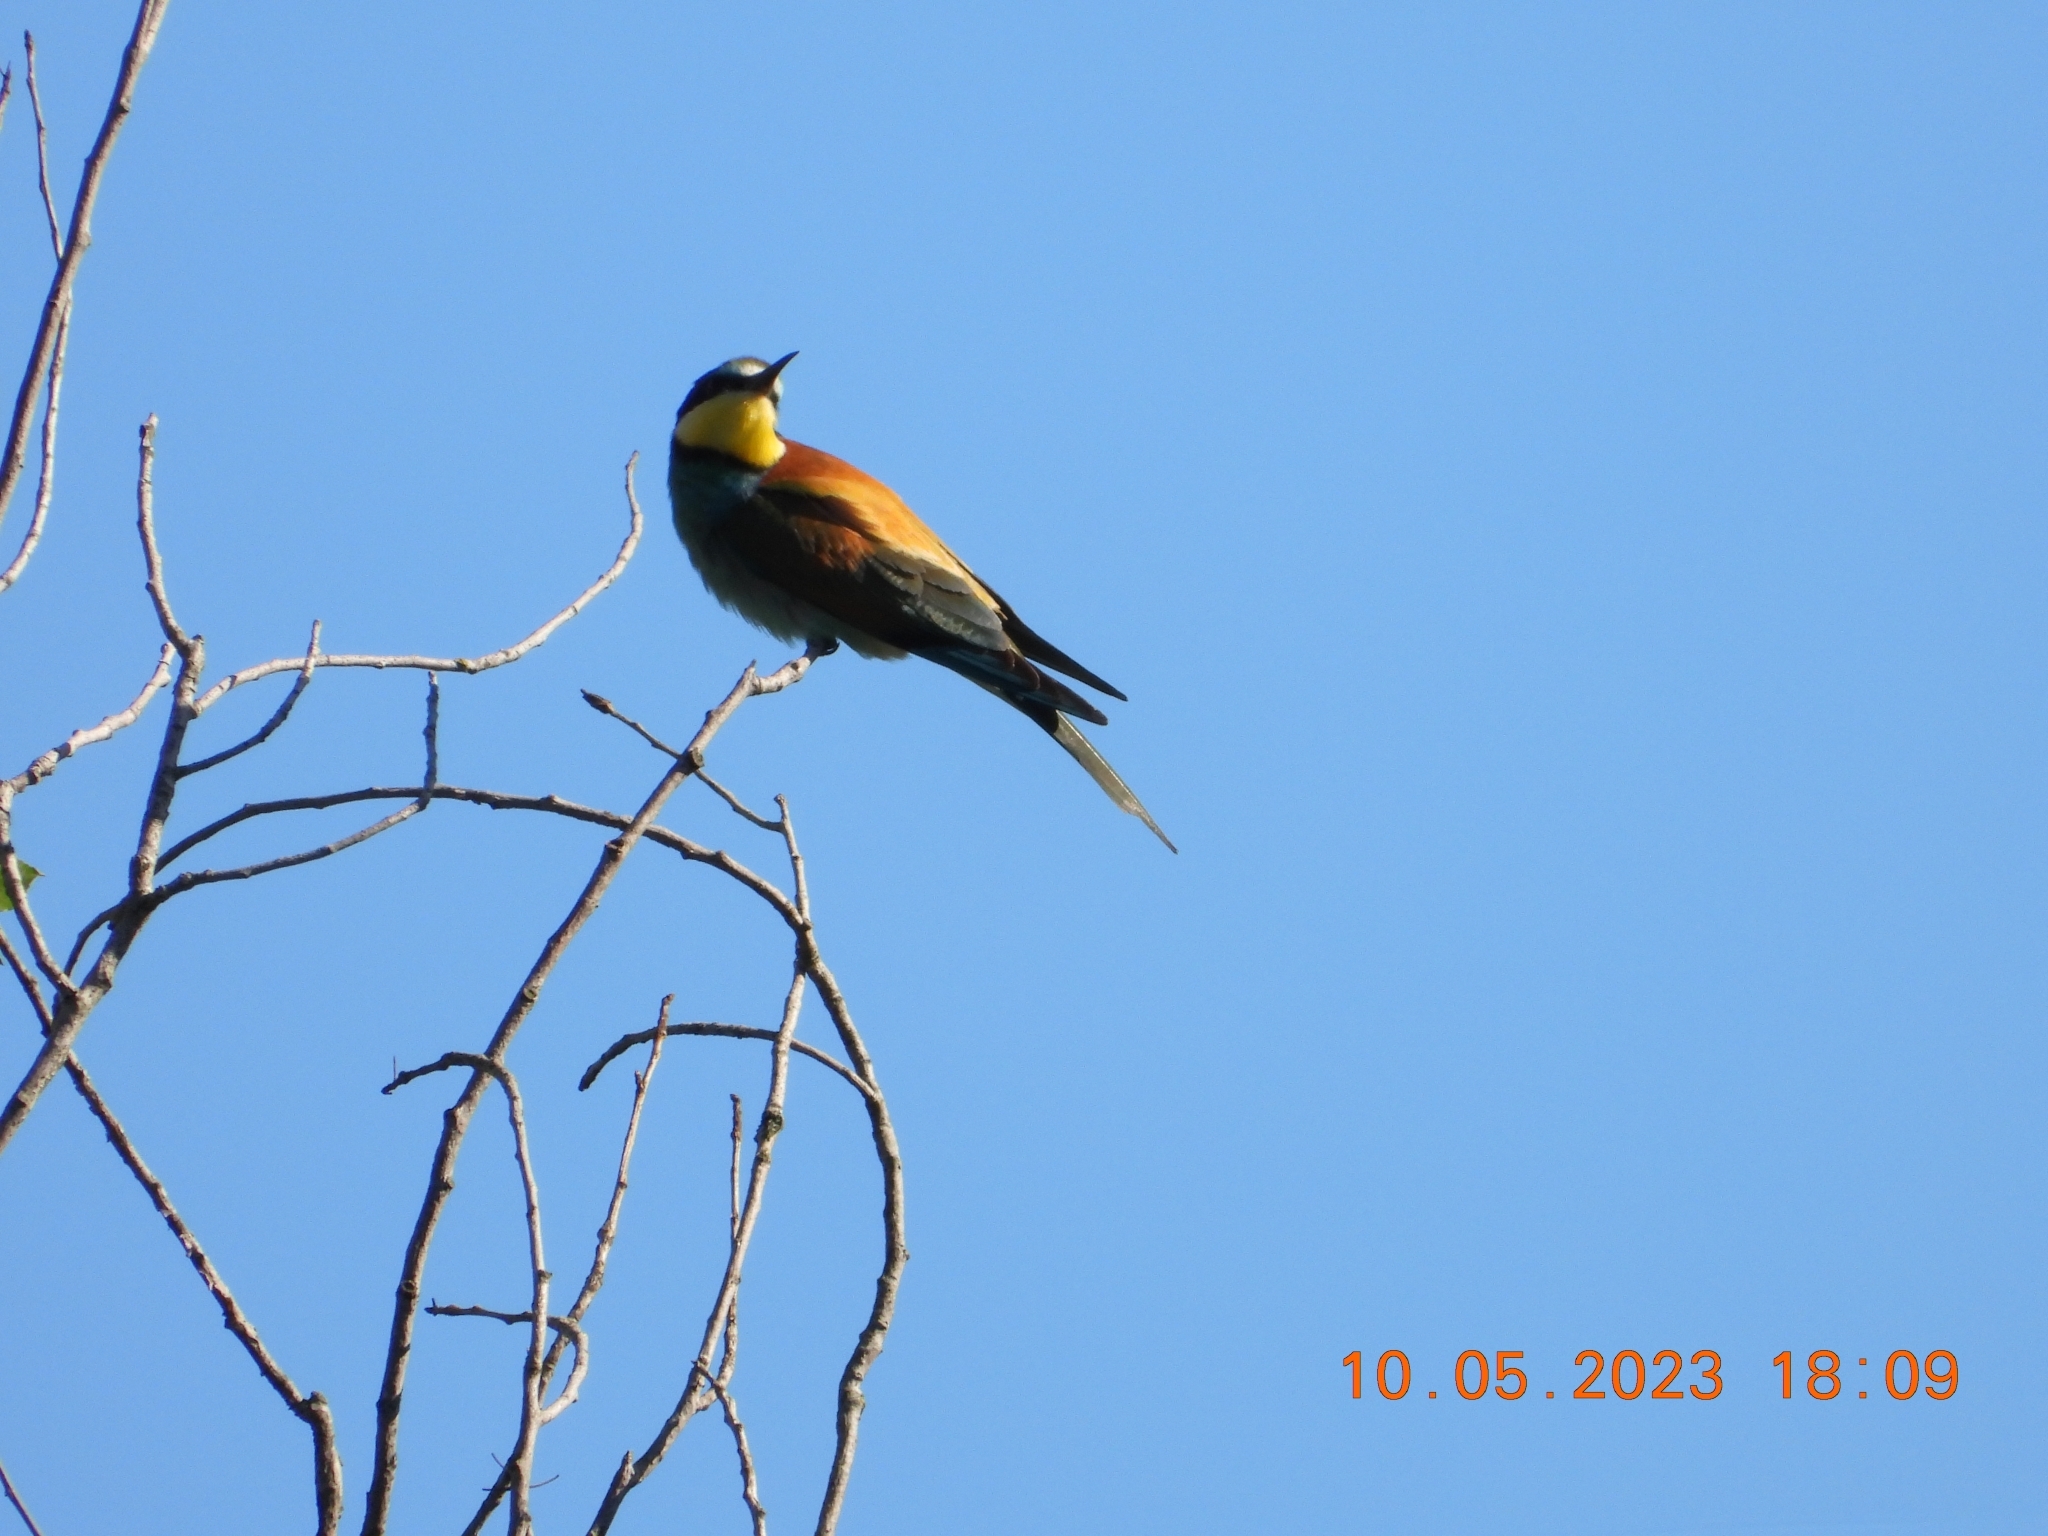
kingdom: Animalia
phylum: Chordata
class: Aves
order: Coraciiformes
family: Meropidae
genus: Merops
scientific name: Merops apiaster
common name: European bee-eater
